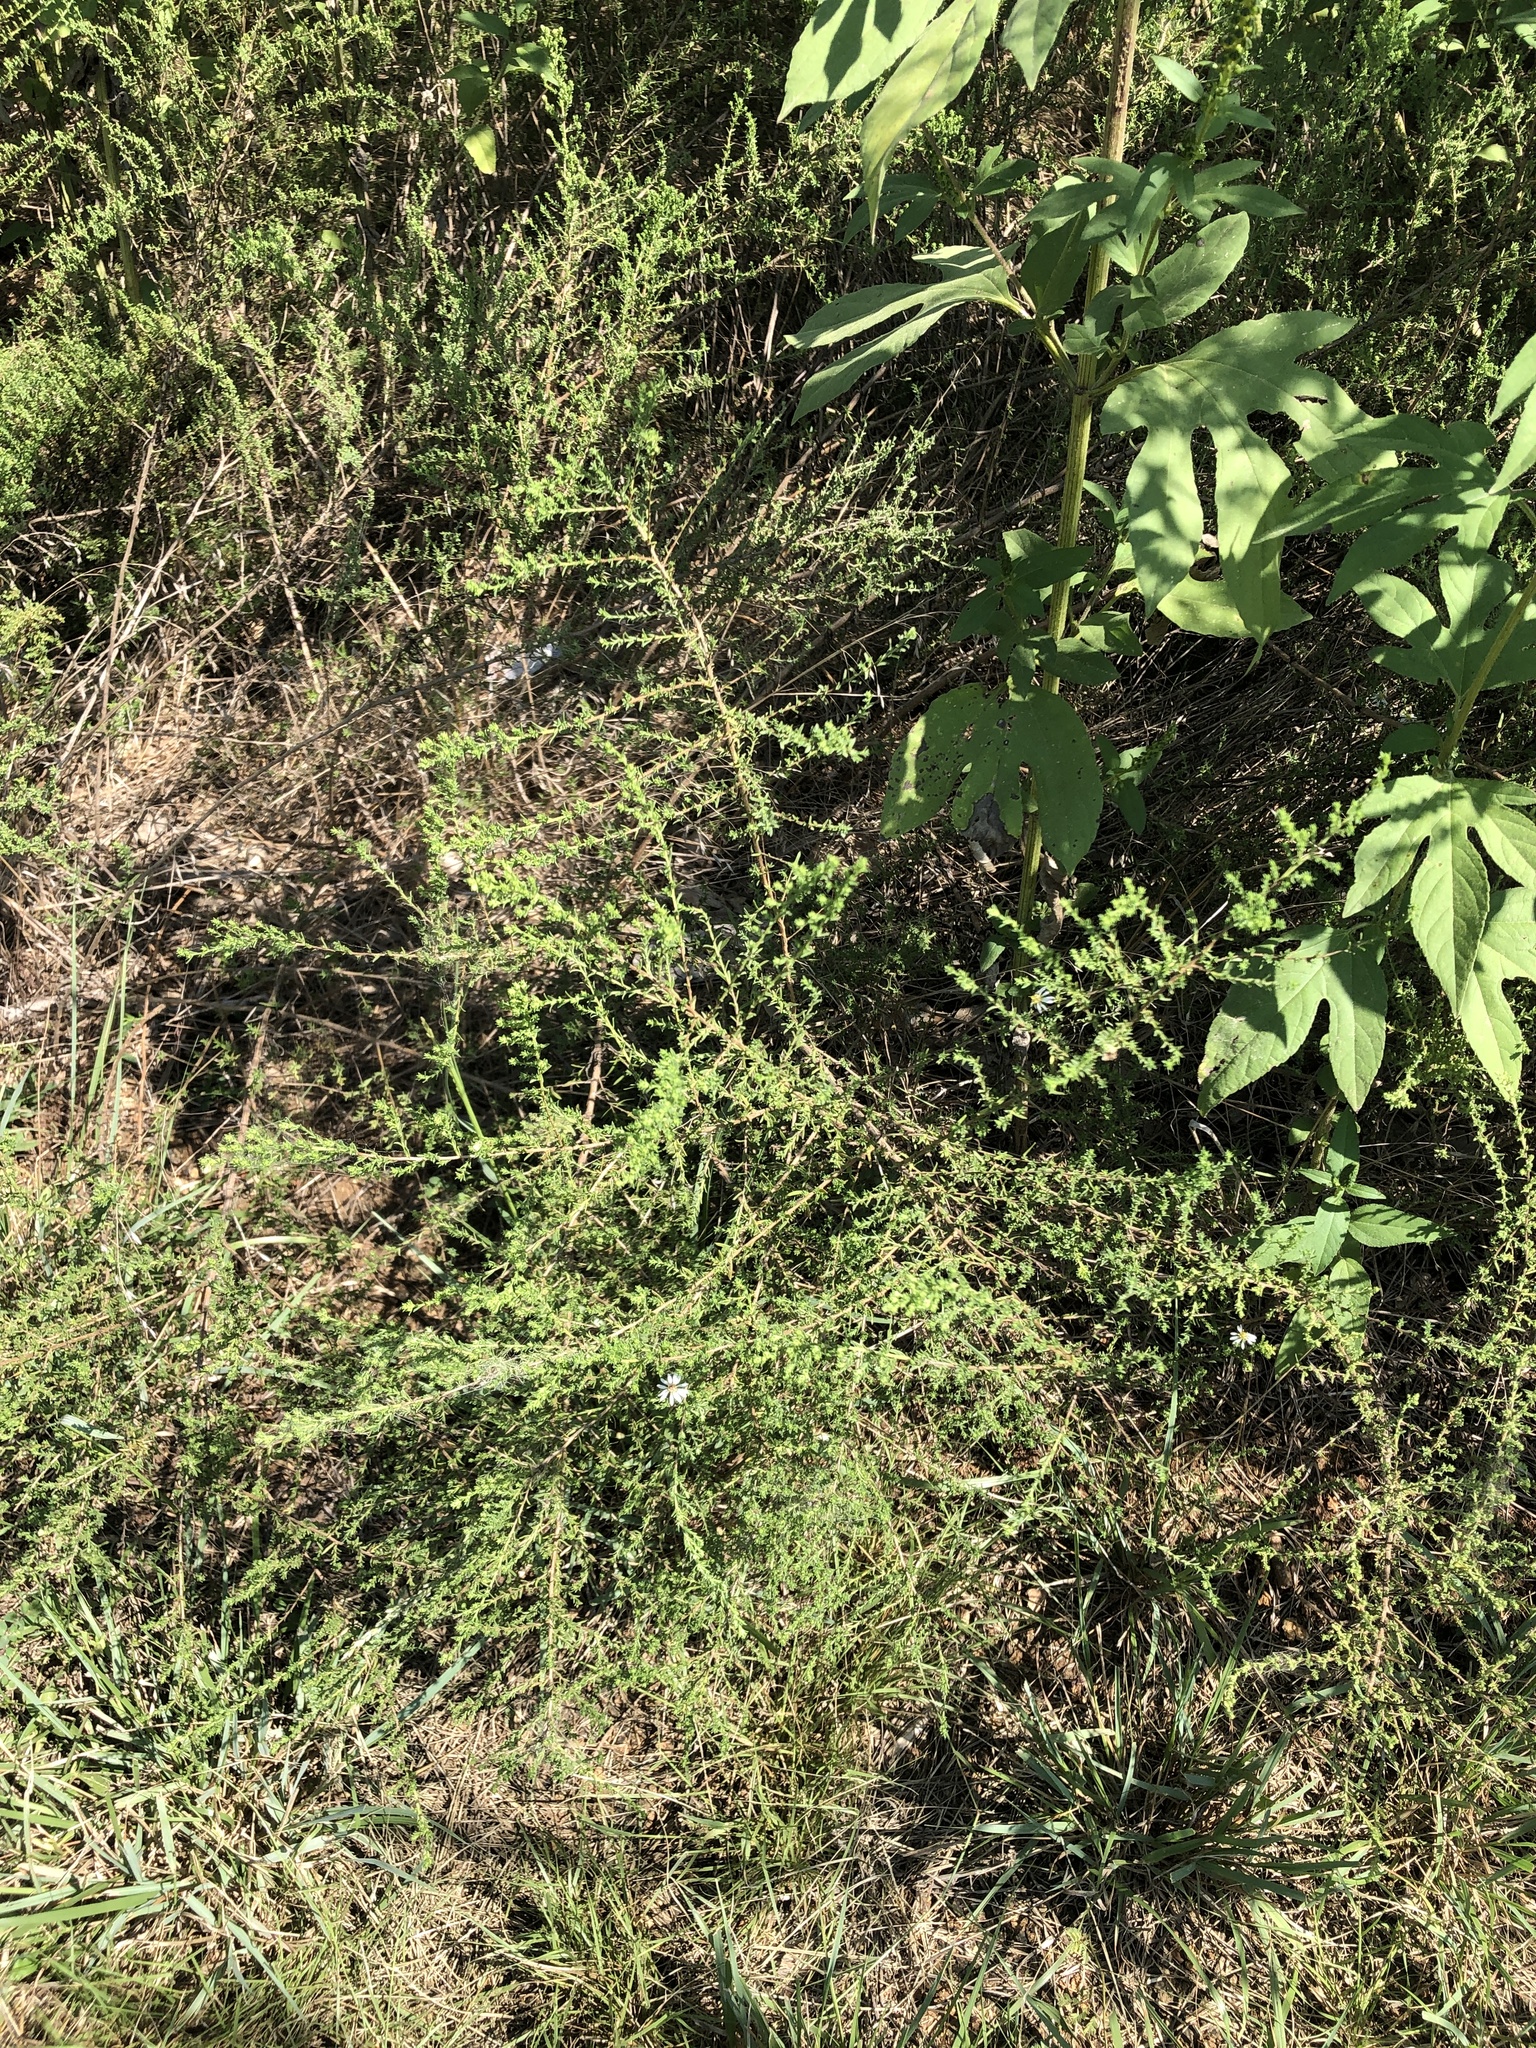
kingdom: Plantae
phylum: Tracheophyta
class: Magnoliopsida
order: Asterales
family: Asteraceae
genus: Symphyotrichum
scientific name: Symphyotrichum ericoides
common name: Heath aster
